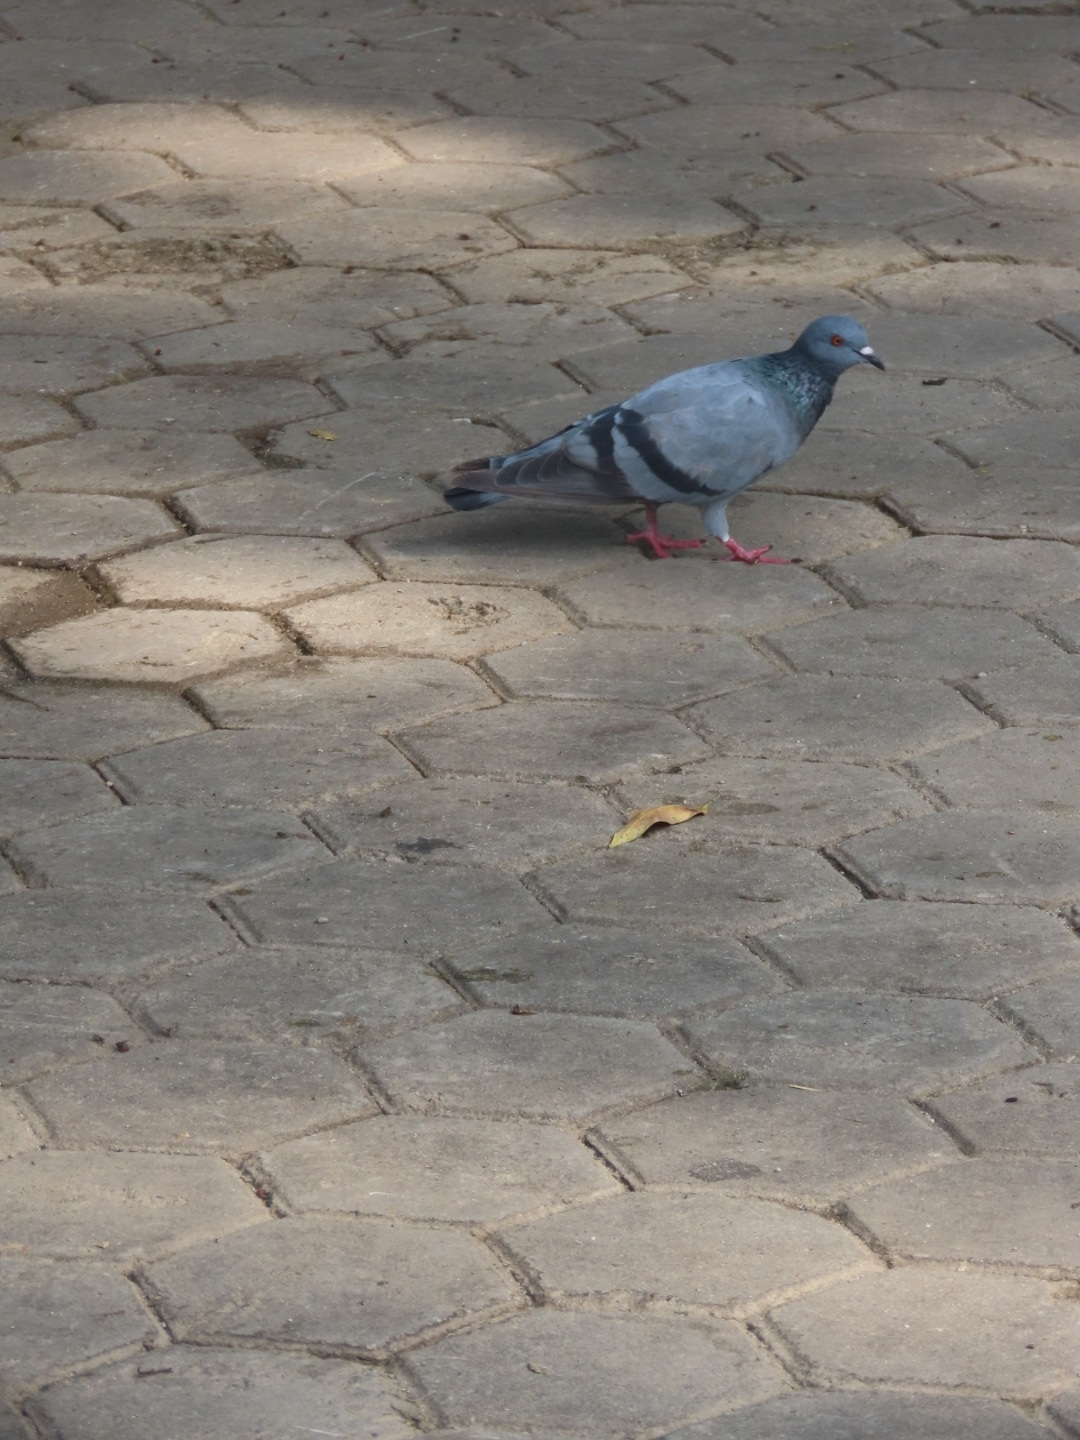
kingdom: Animalia
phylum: Chordata
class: Aves
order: Columbiformes
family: Columbidae
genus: Columba
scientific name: Columba livia
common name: Rock pigeon
